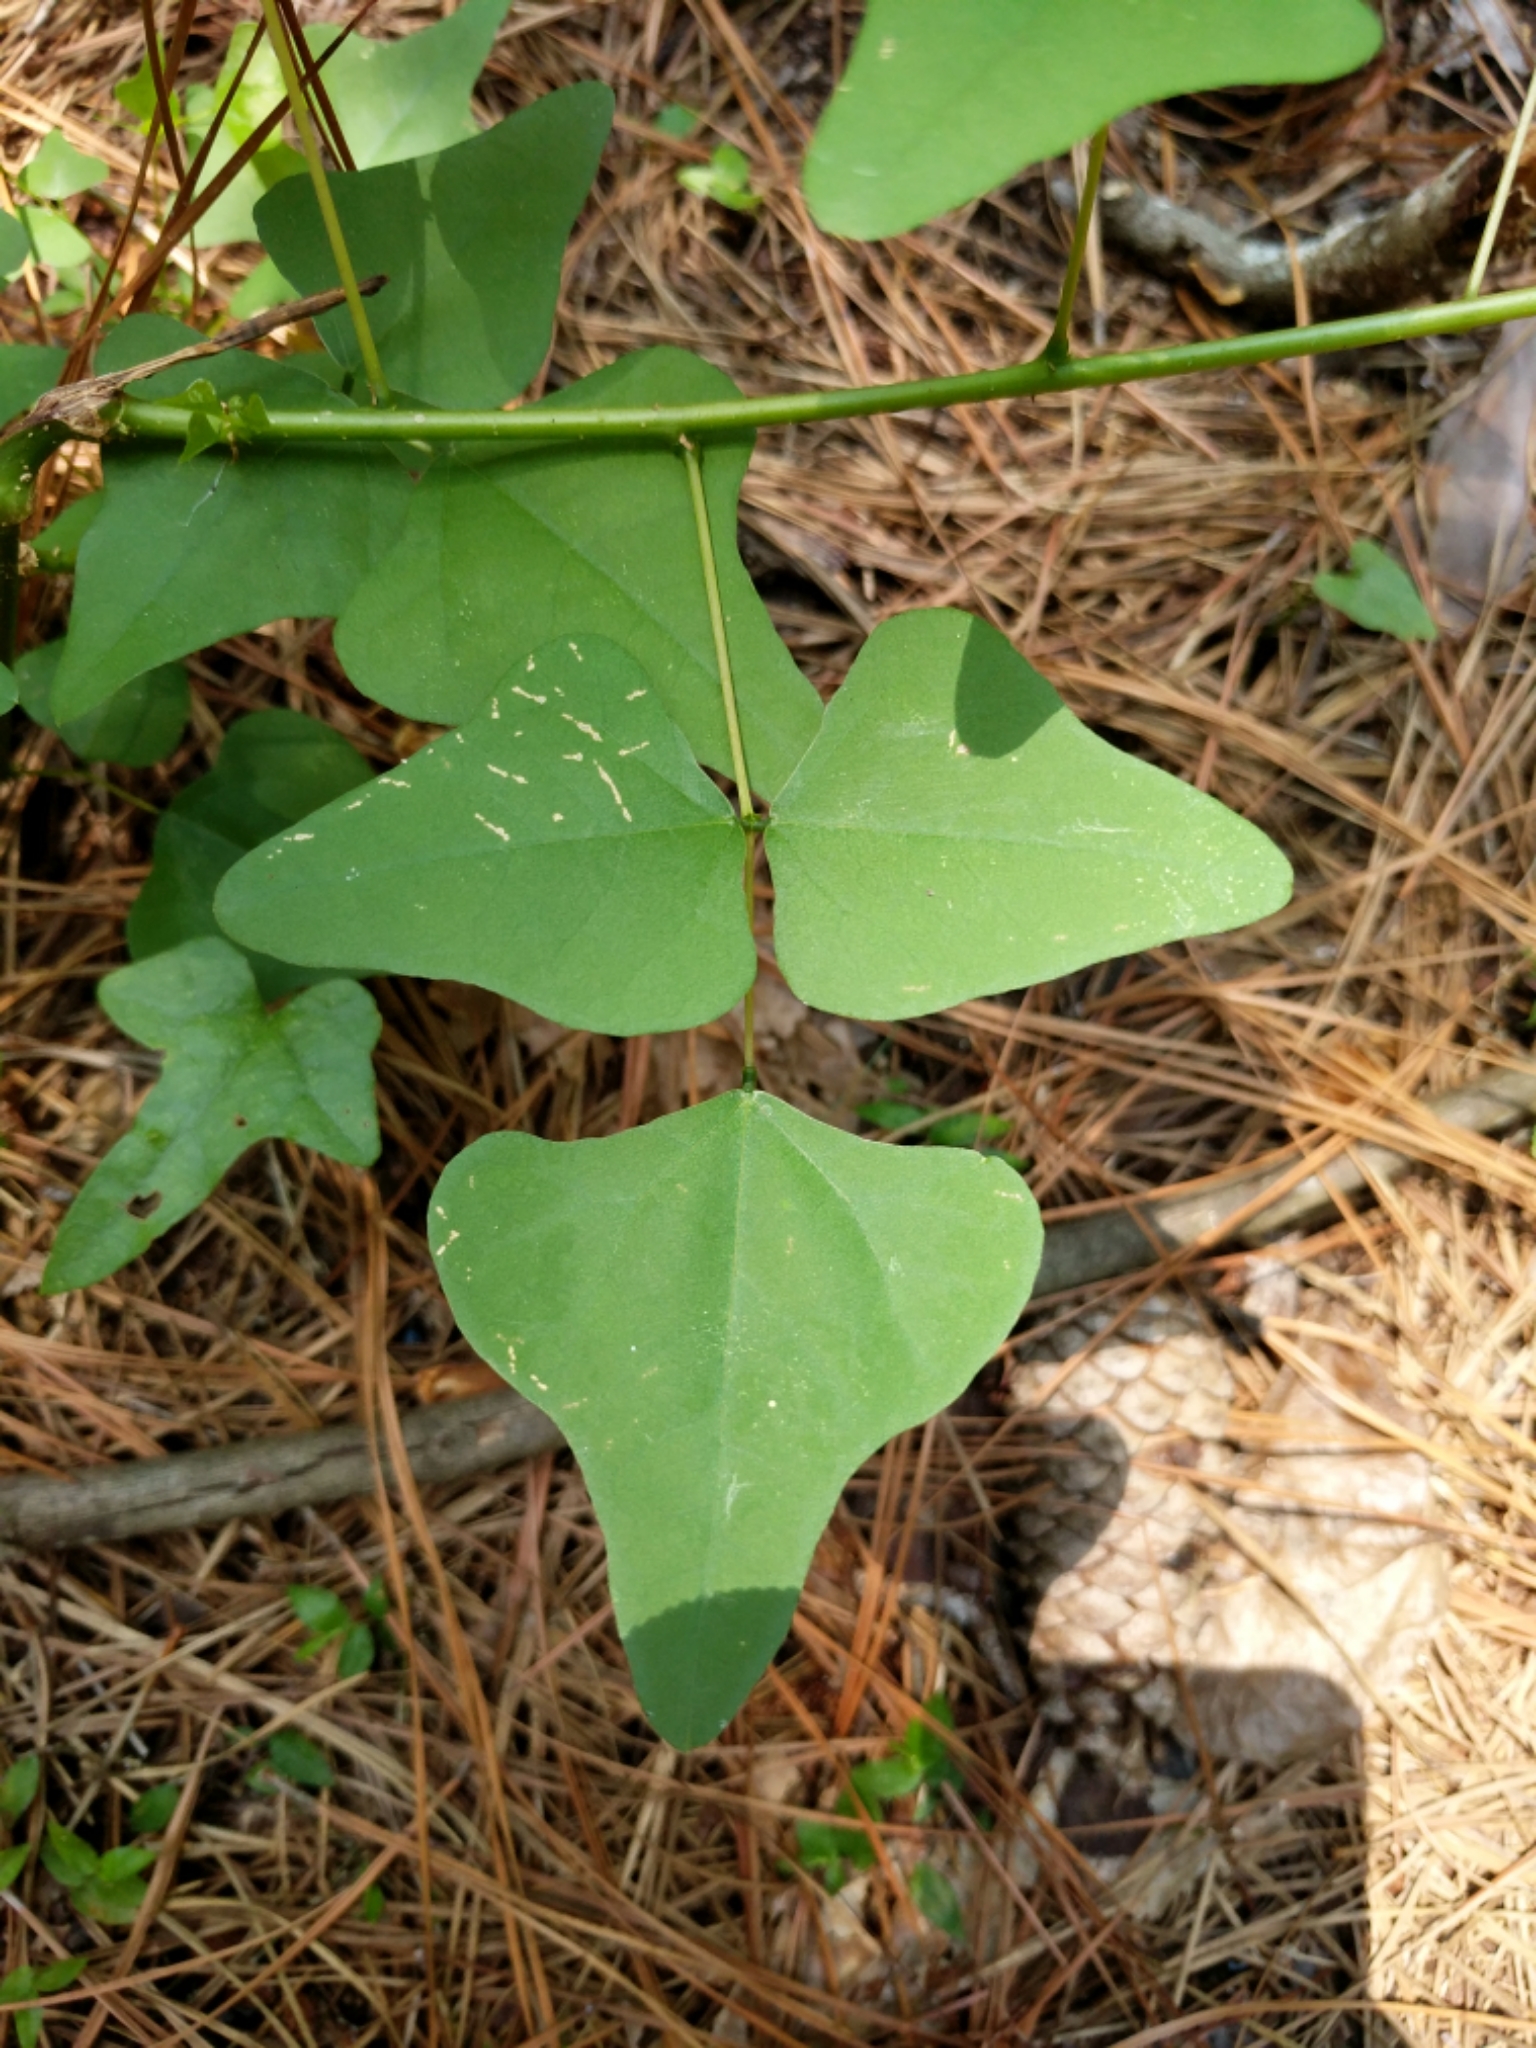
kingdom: Plantae
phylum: Tracheophyta
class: Magnoliopsida
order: Fabales
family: Fabaceae
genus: Erythrina
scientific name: Erythrina herbacea
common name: Coral-bean
